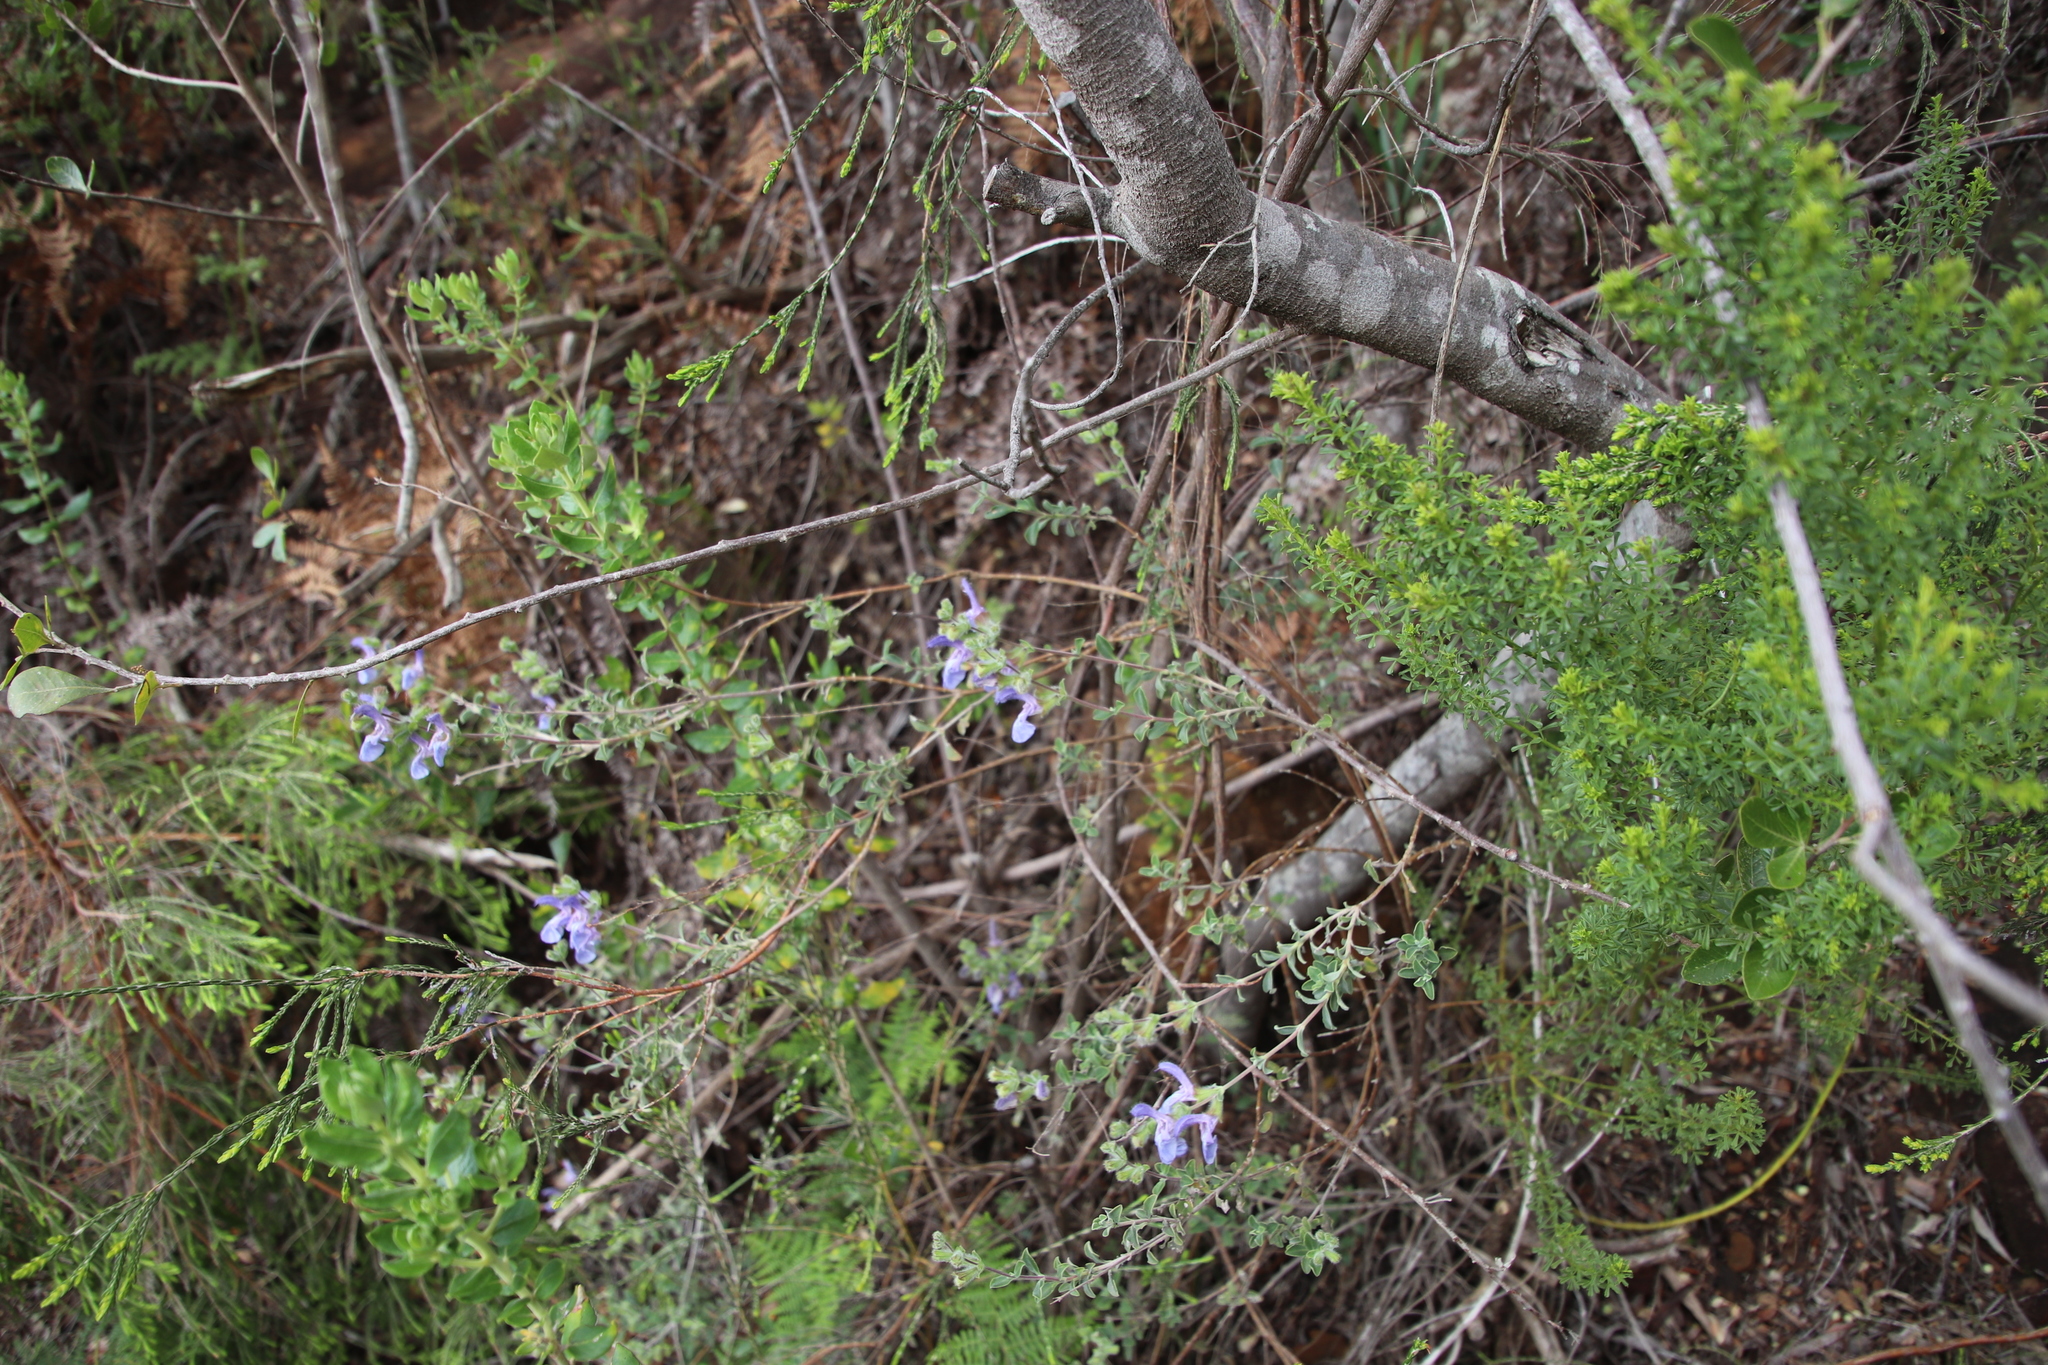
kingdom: Plantae
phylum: Tracheophyta
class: Magnoliopsida
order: Lamiales
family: Lamiaceae
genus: Salvia
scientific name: Salvia africana
